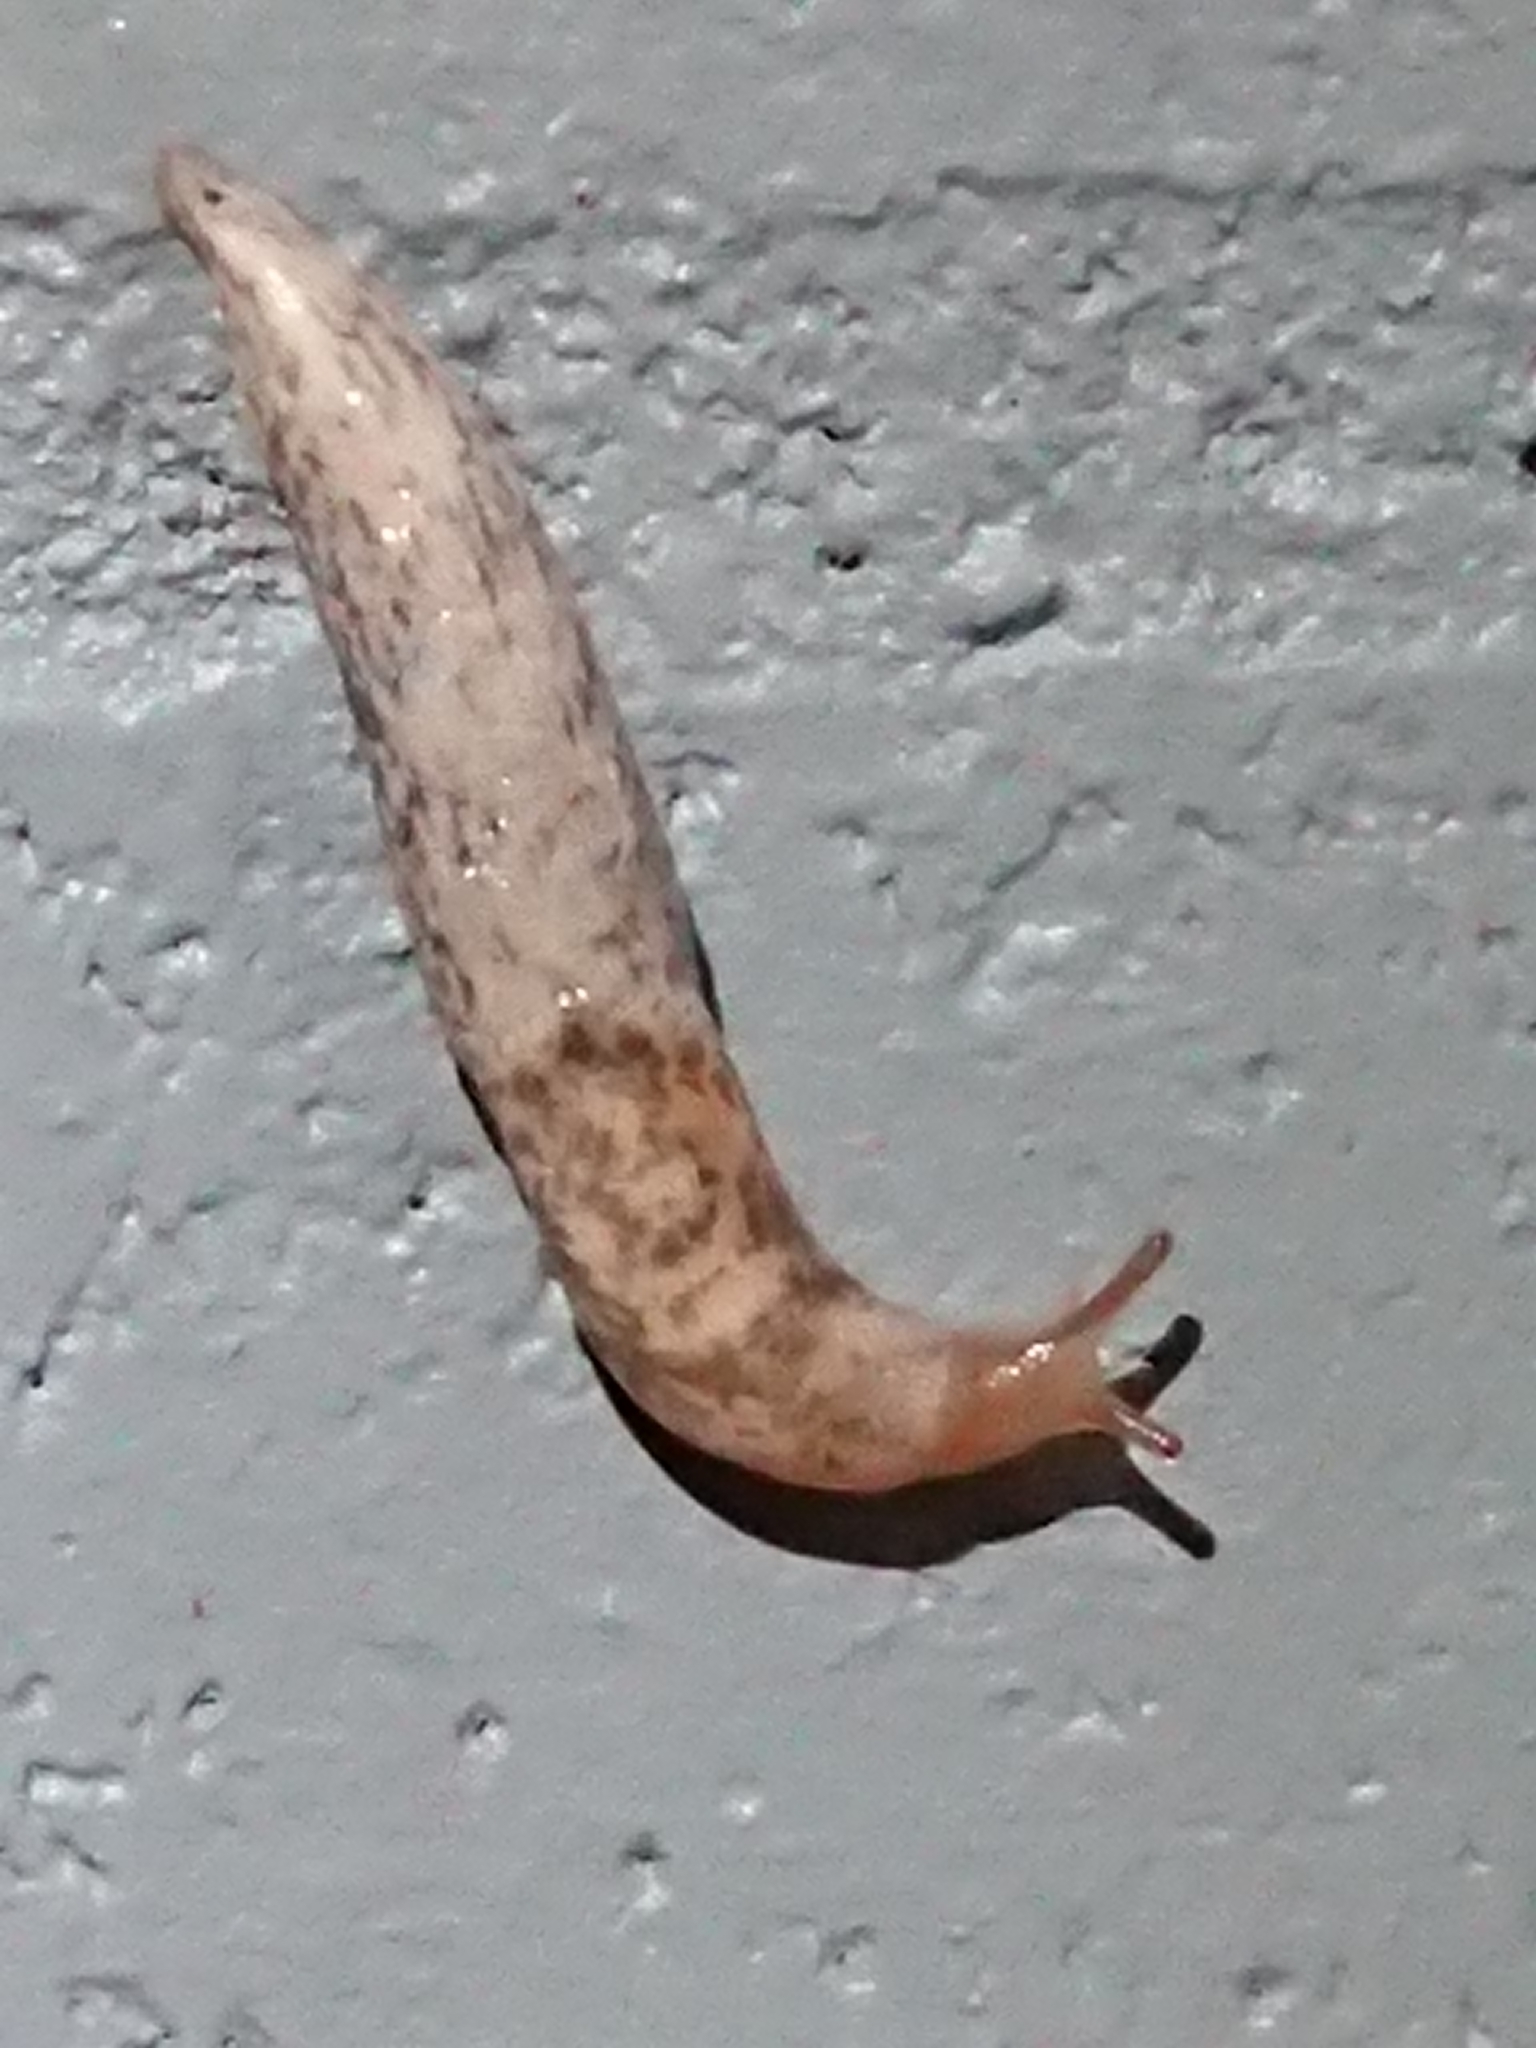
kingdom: Animalia
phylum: Mollusca
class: Gastropoda
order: Stylommatophora
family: Agriolimacidae
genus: Deroceras
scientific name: Deroceras reticulatum
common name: Gray field slug
